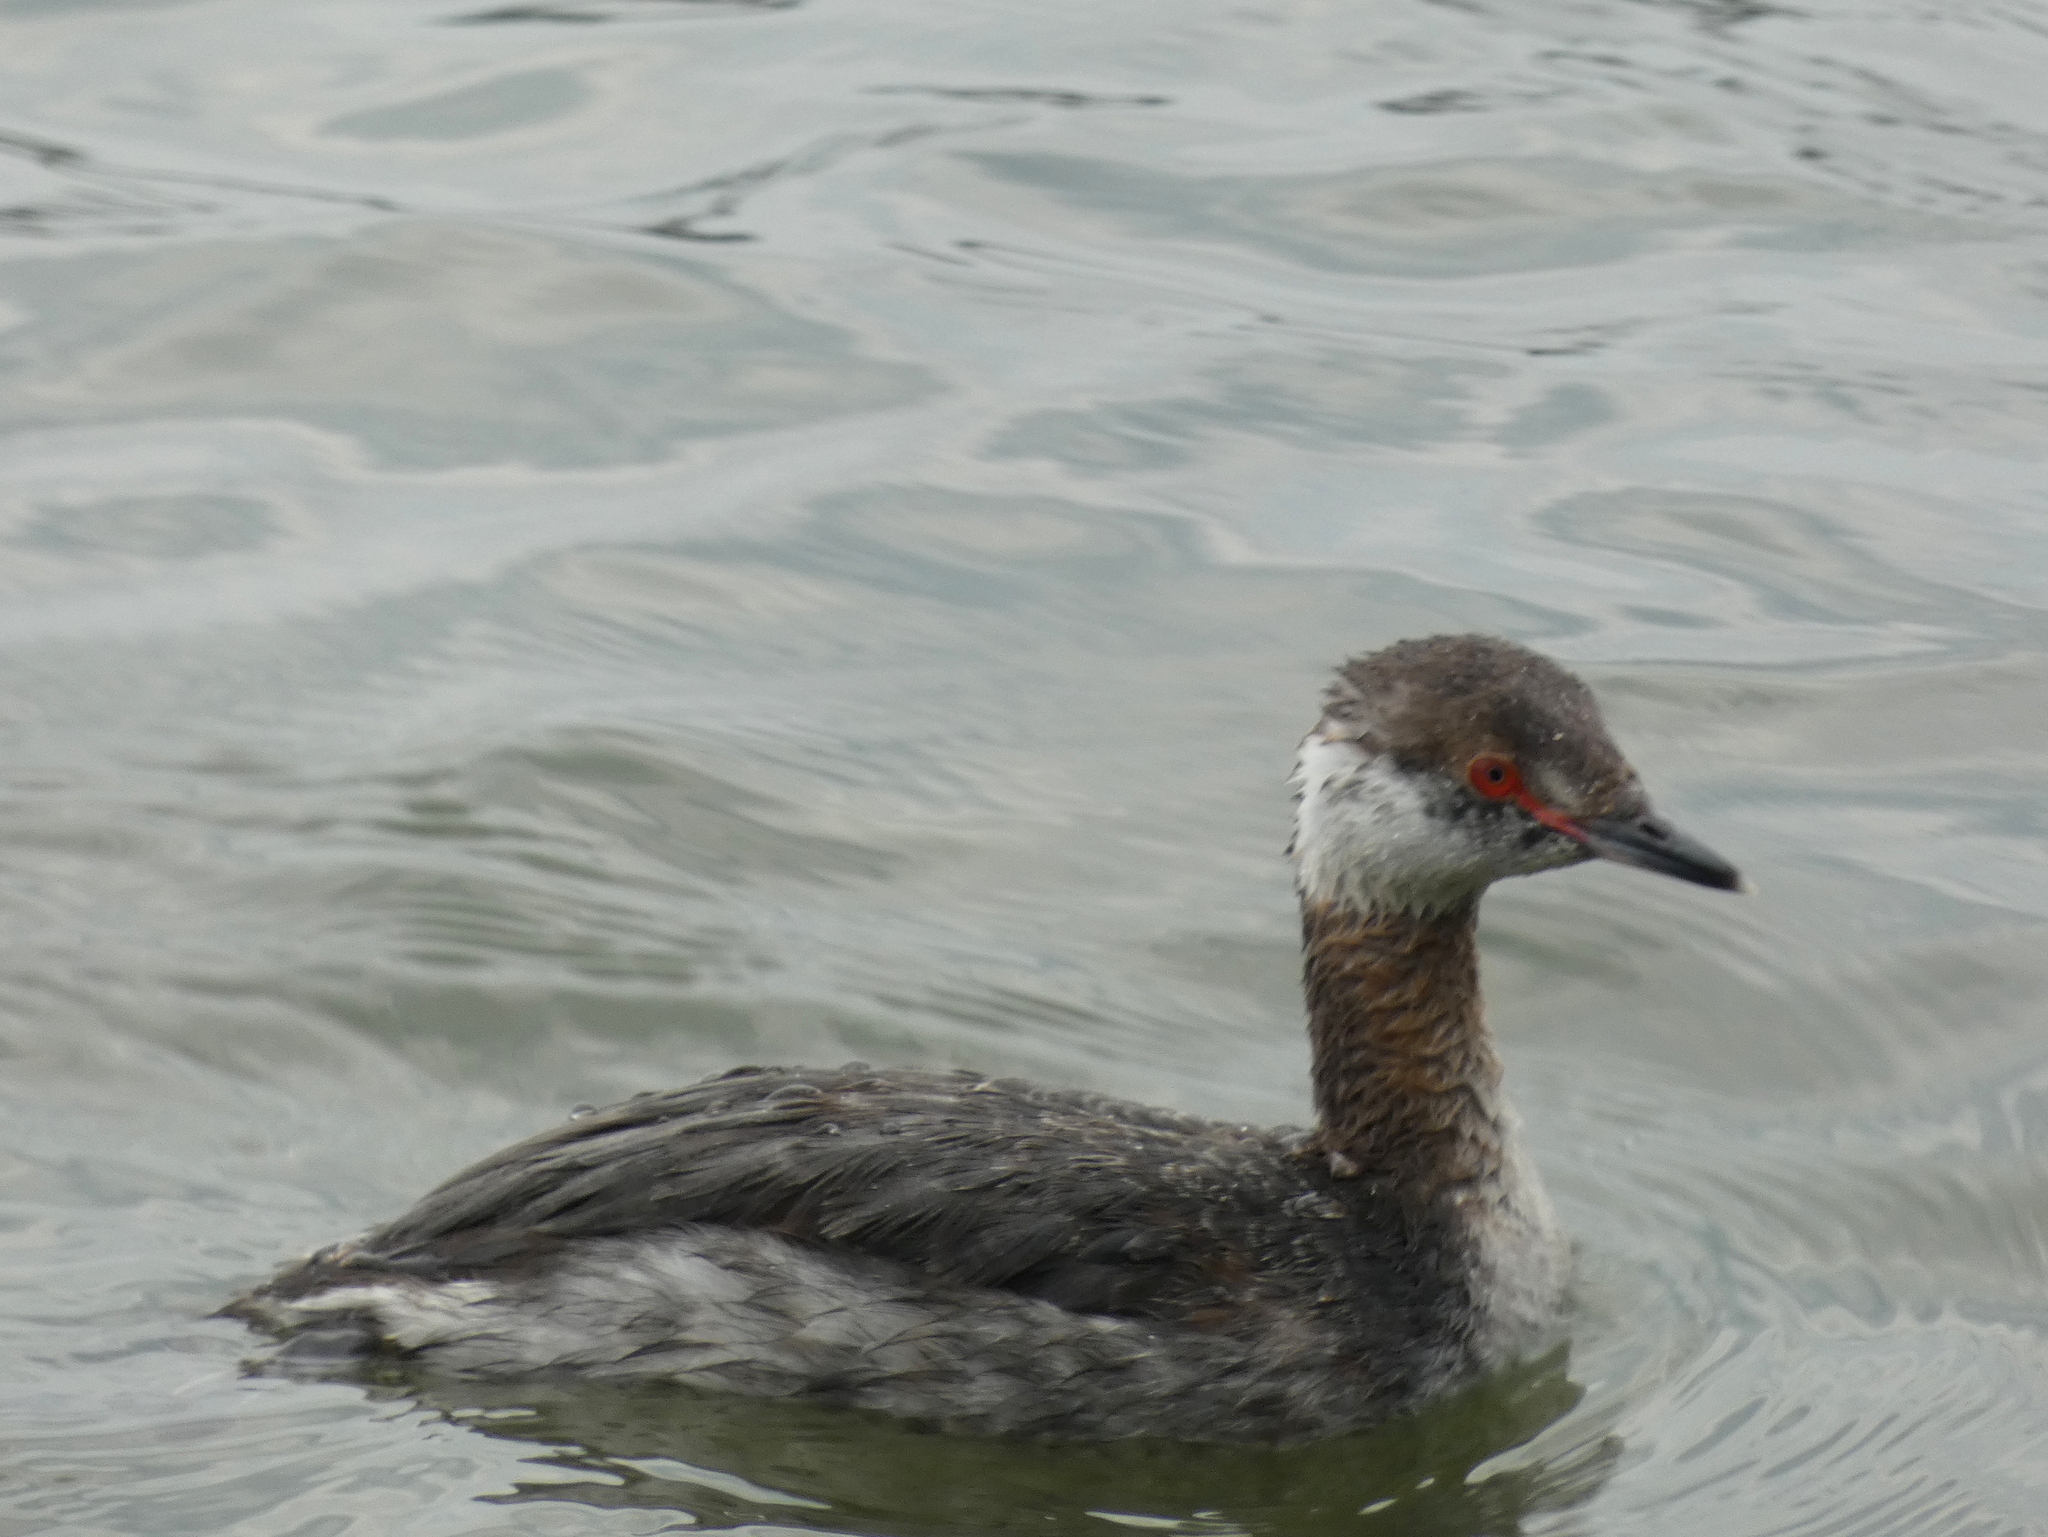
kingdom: Animalia
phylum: Chordata
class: Aves
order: Podicipediformes
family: Podicipedidae
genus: Podiceps
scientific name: Podiceps auritus
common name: Horned grebe
